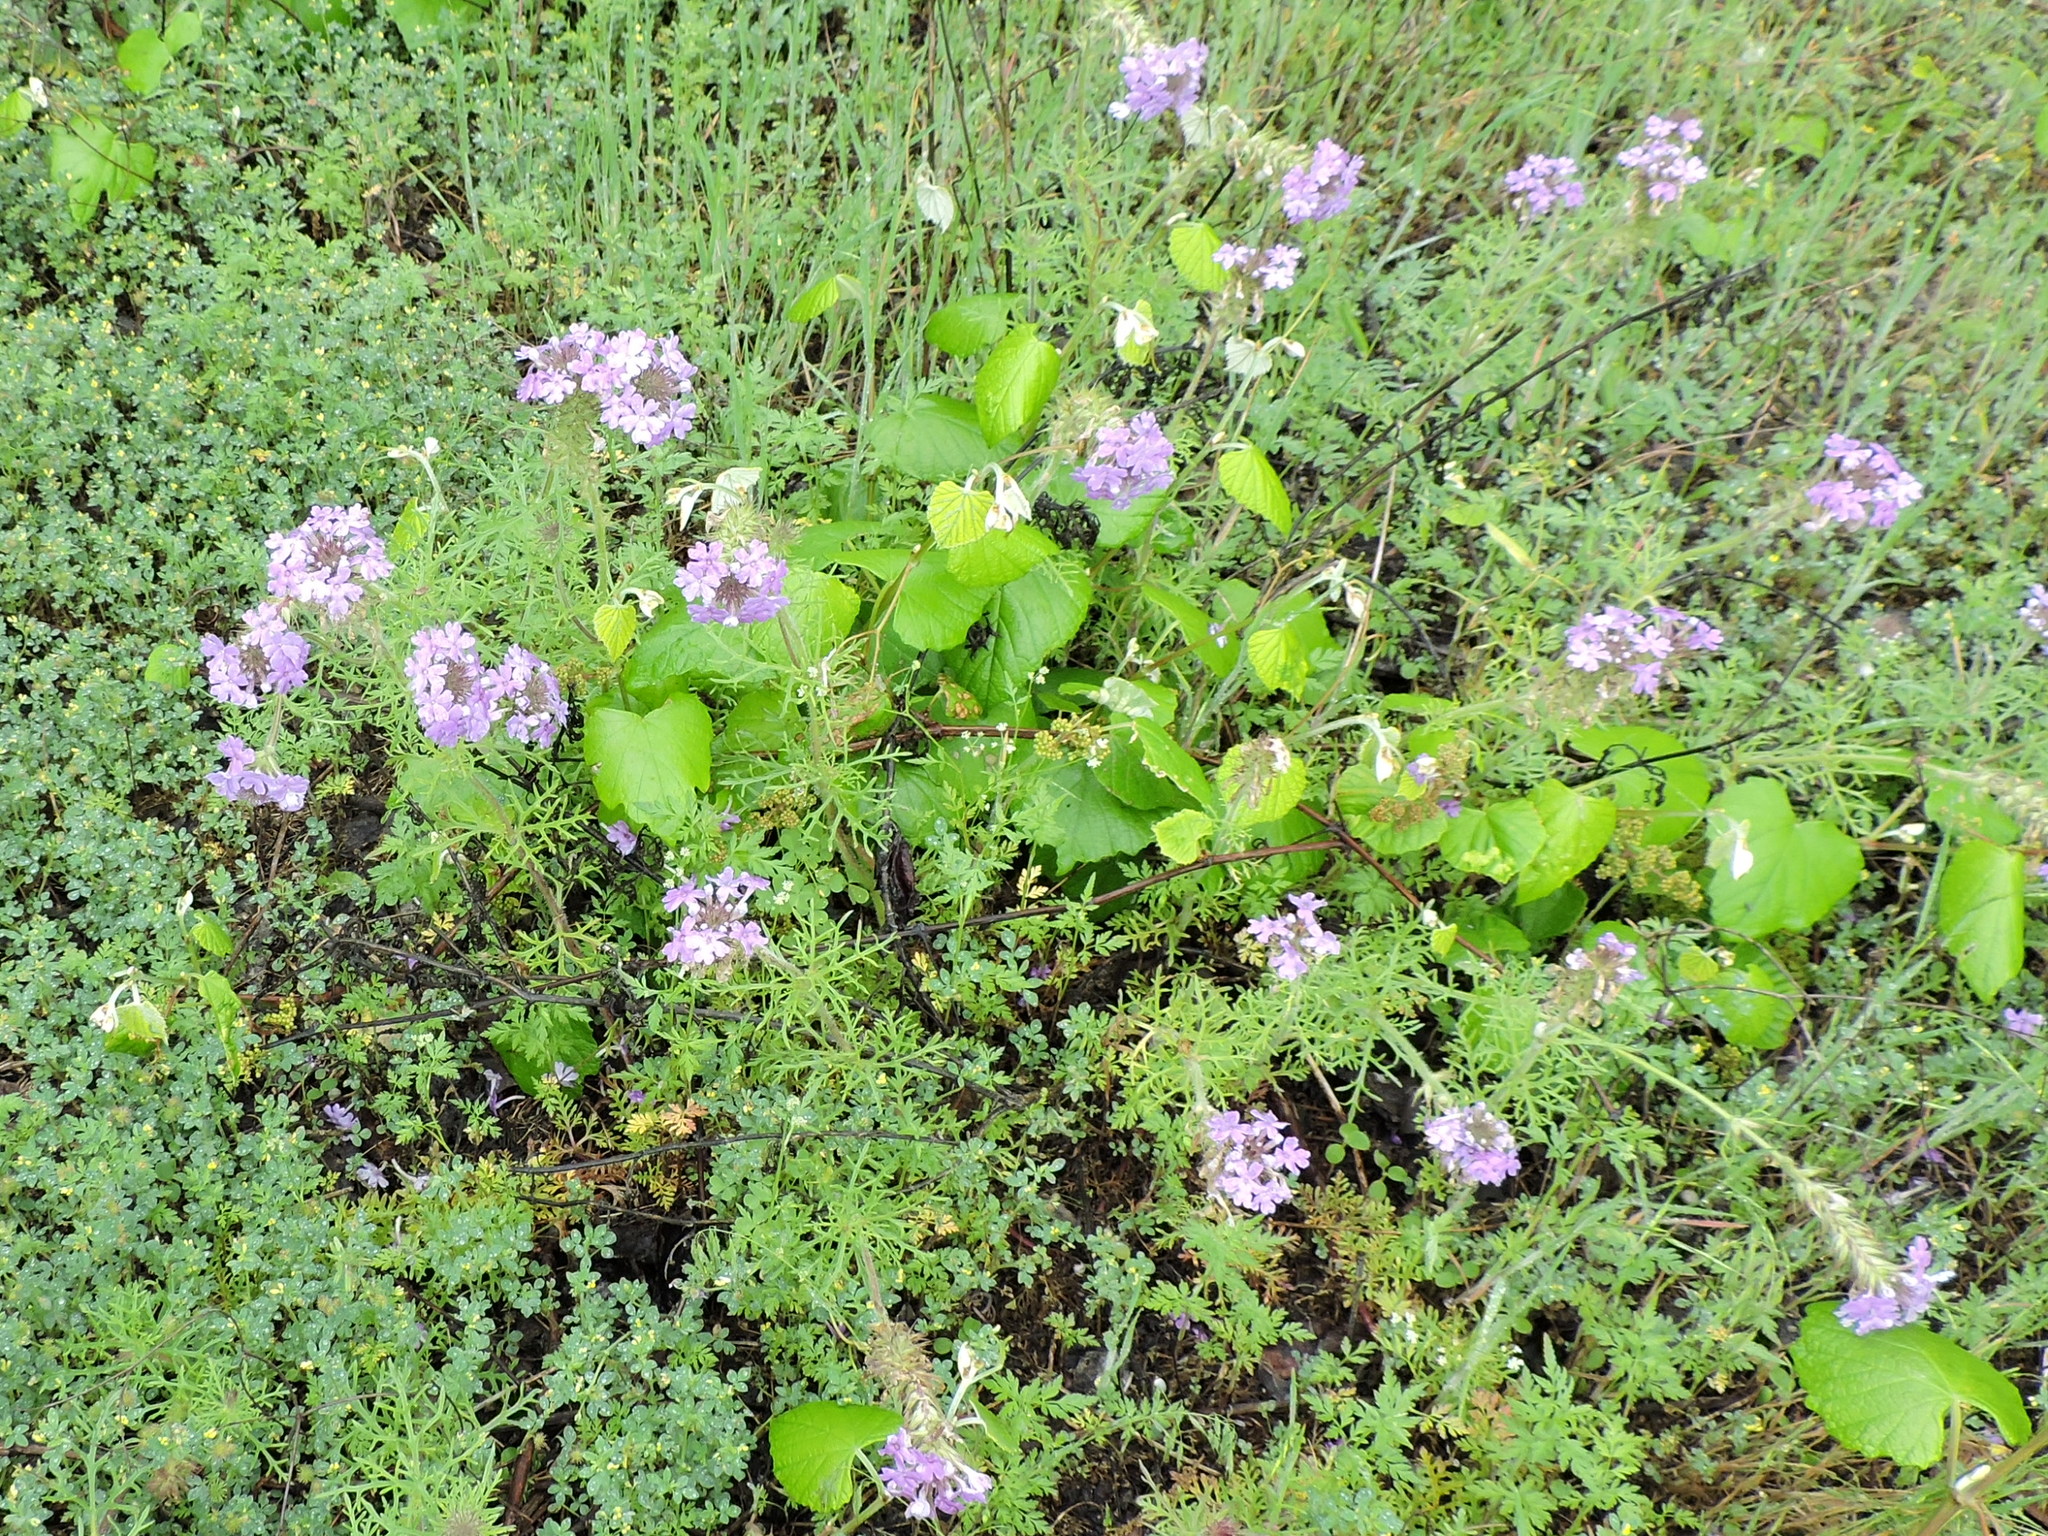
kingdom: Plantae
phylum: Tracheophyta
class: Magnoliopsida
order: Lamiales
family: Verbenaceae
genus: Verbena
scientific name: Verbena bipinnatifida
